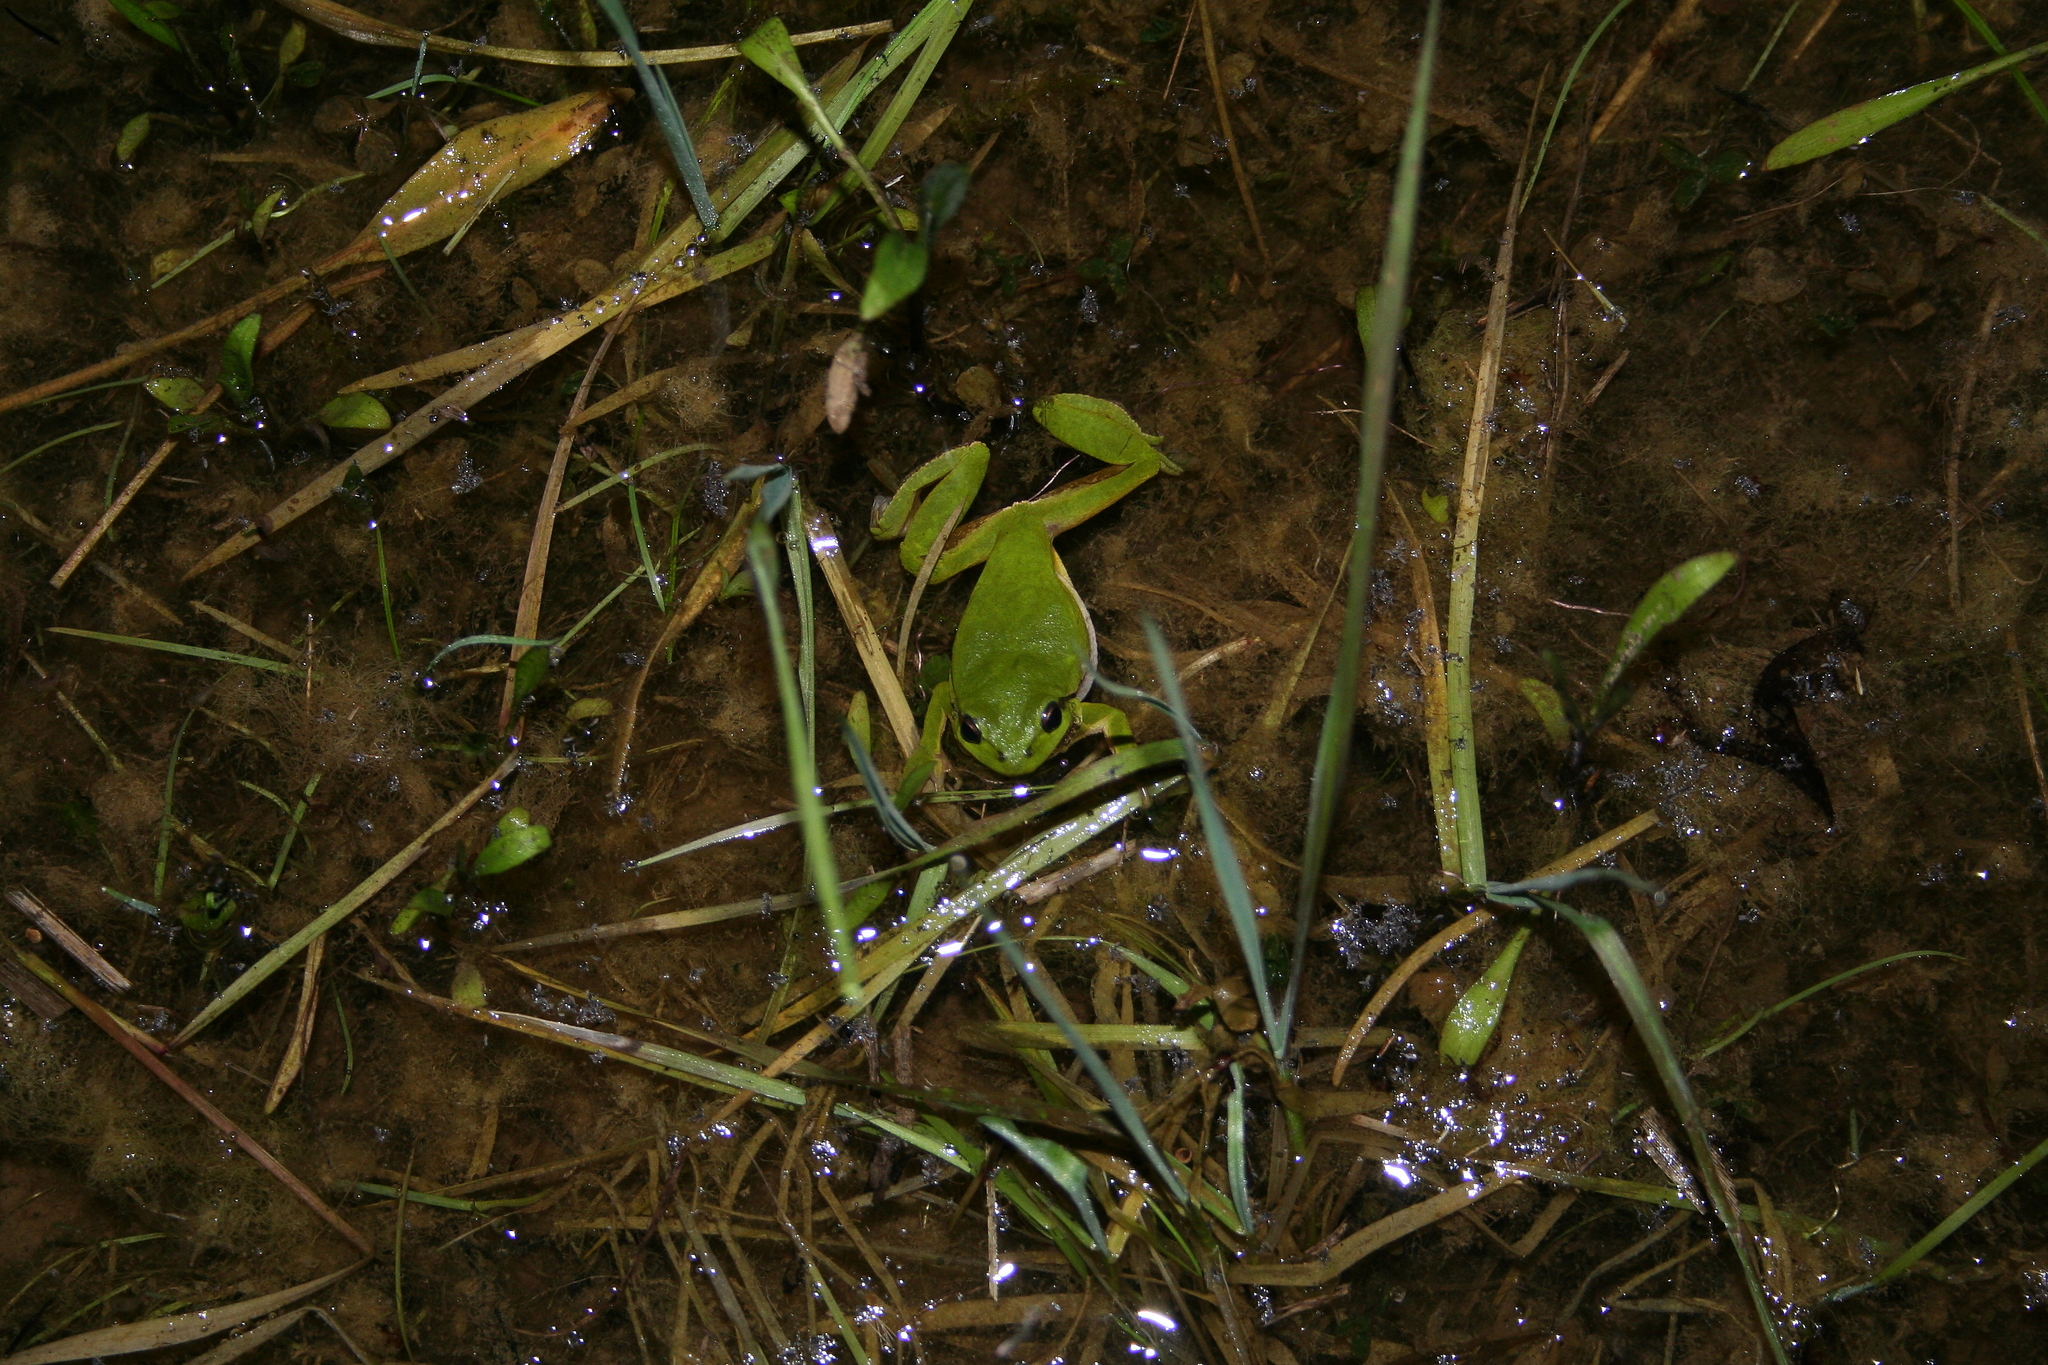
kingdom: Animalia
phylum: Chordata
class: Amphibia
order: Anura
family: Hylidae
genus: Hyla
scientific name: Hyla arborea
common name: Common tree frog
